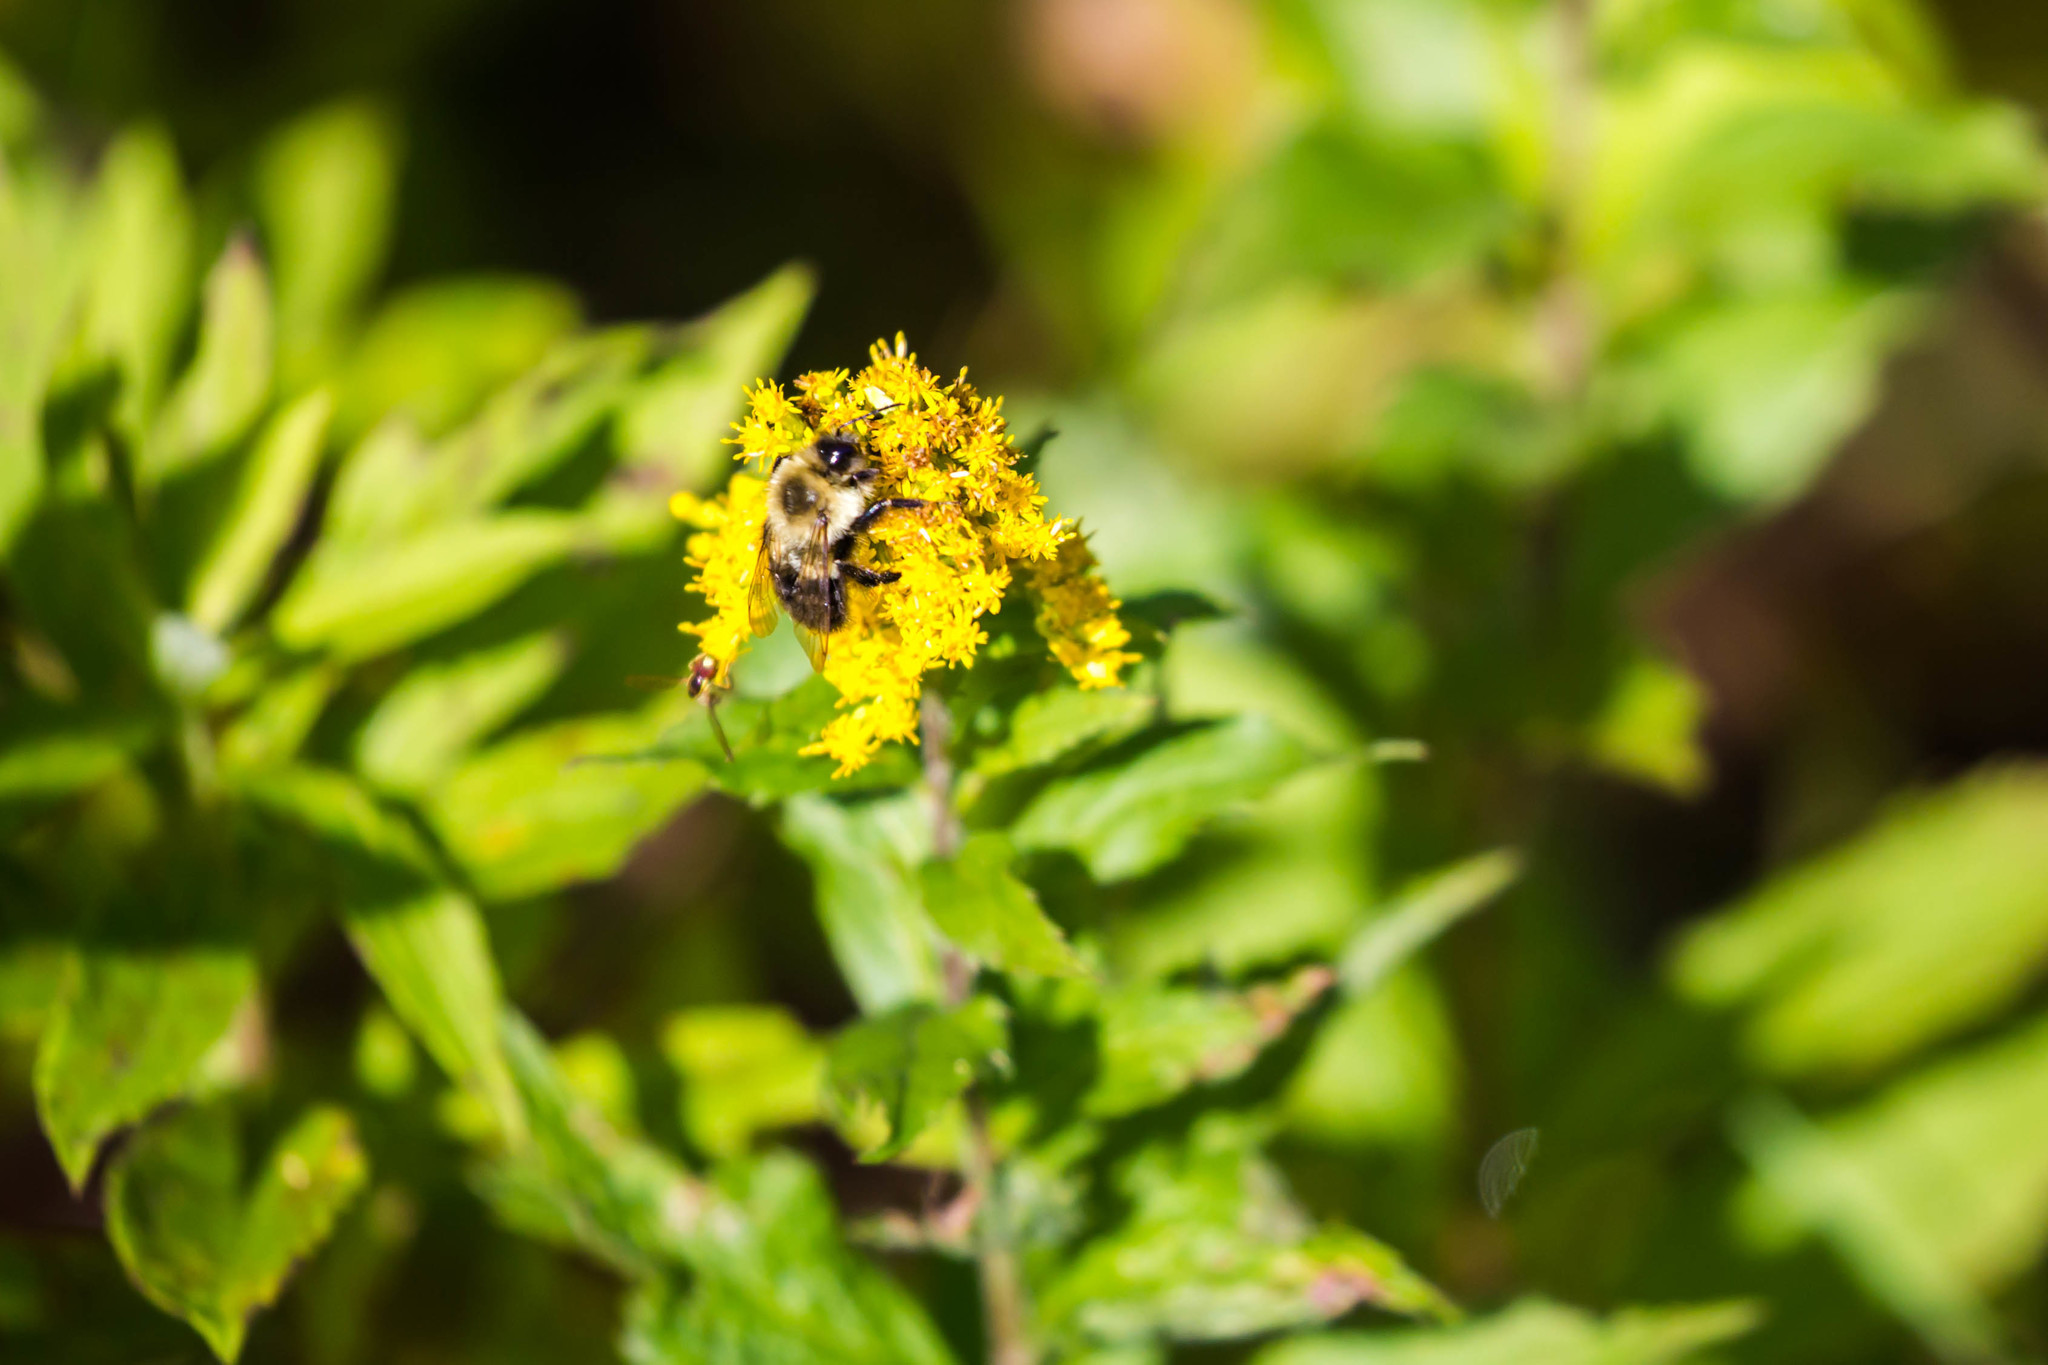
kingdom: Animalia
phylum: Arthropoda
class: Insecta
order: Hymenoptera
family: Apidae
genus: Bombus
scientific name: Bombus impatiens
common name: Common eastern bumble bee
